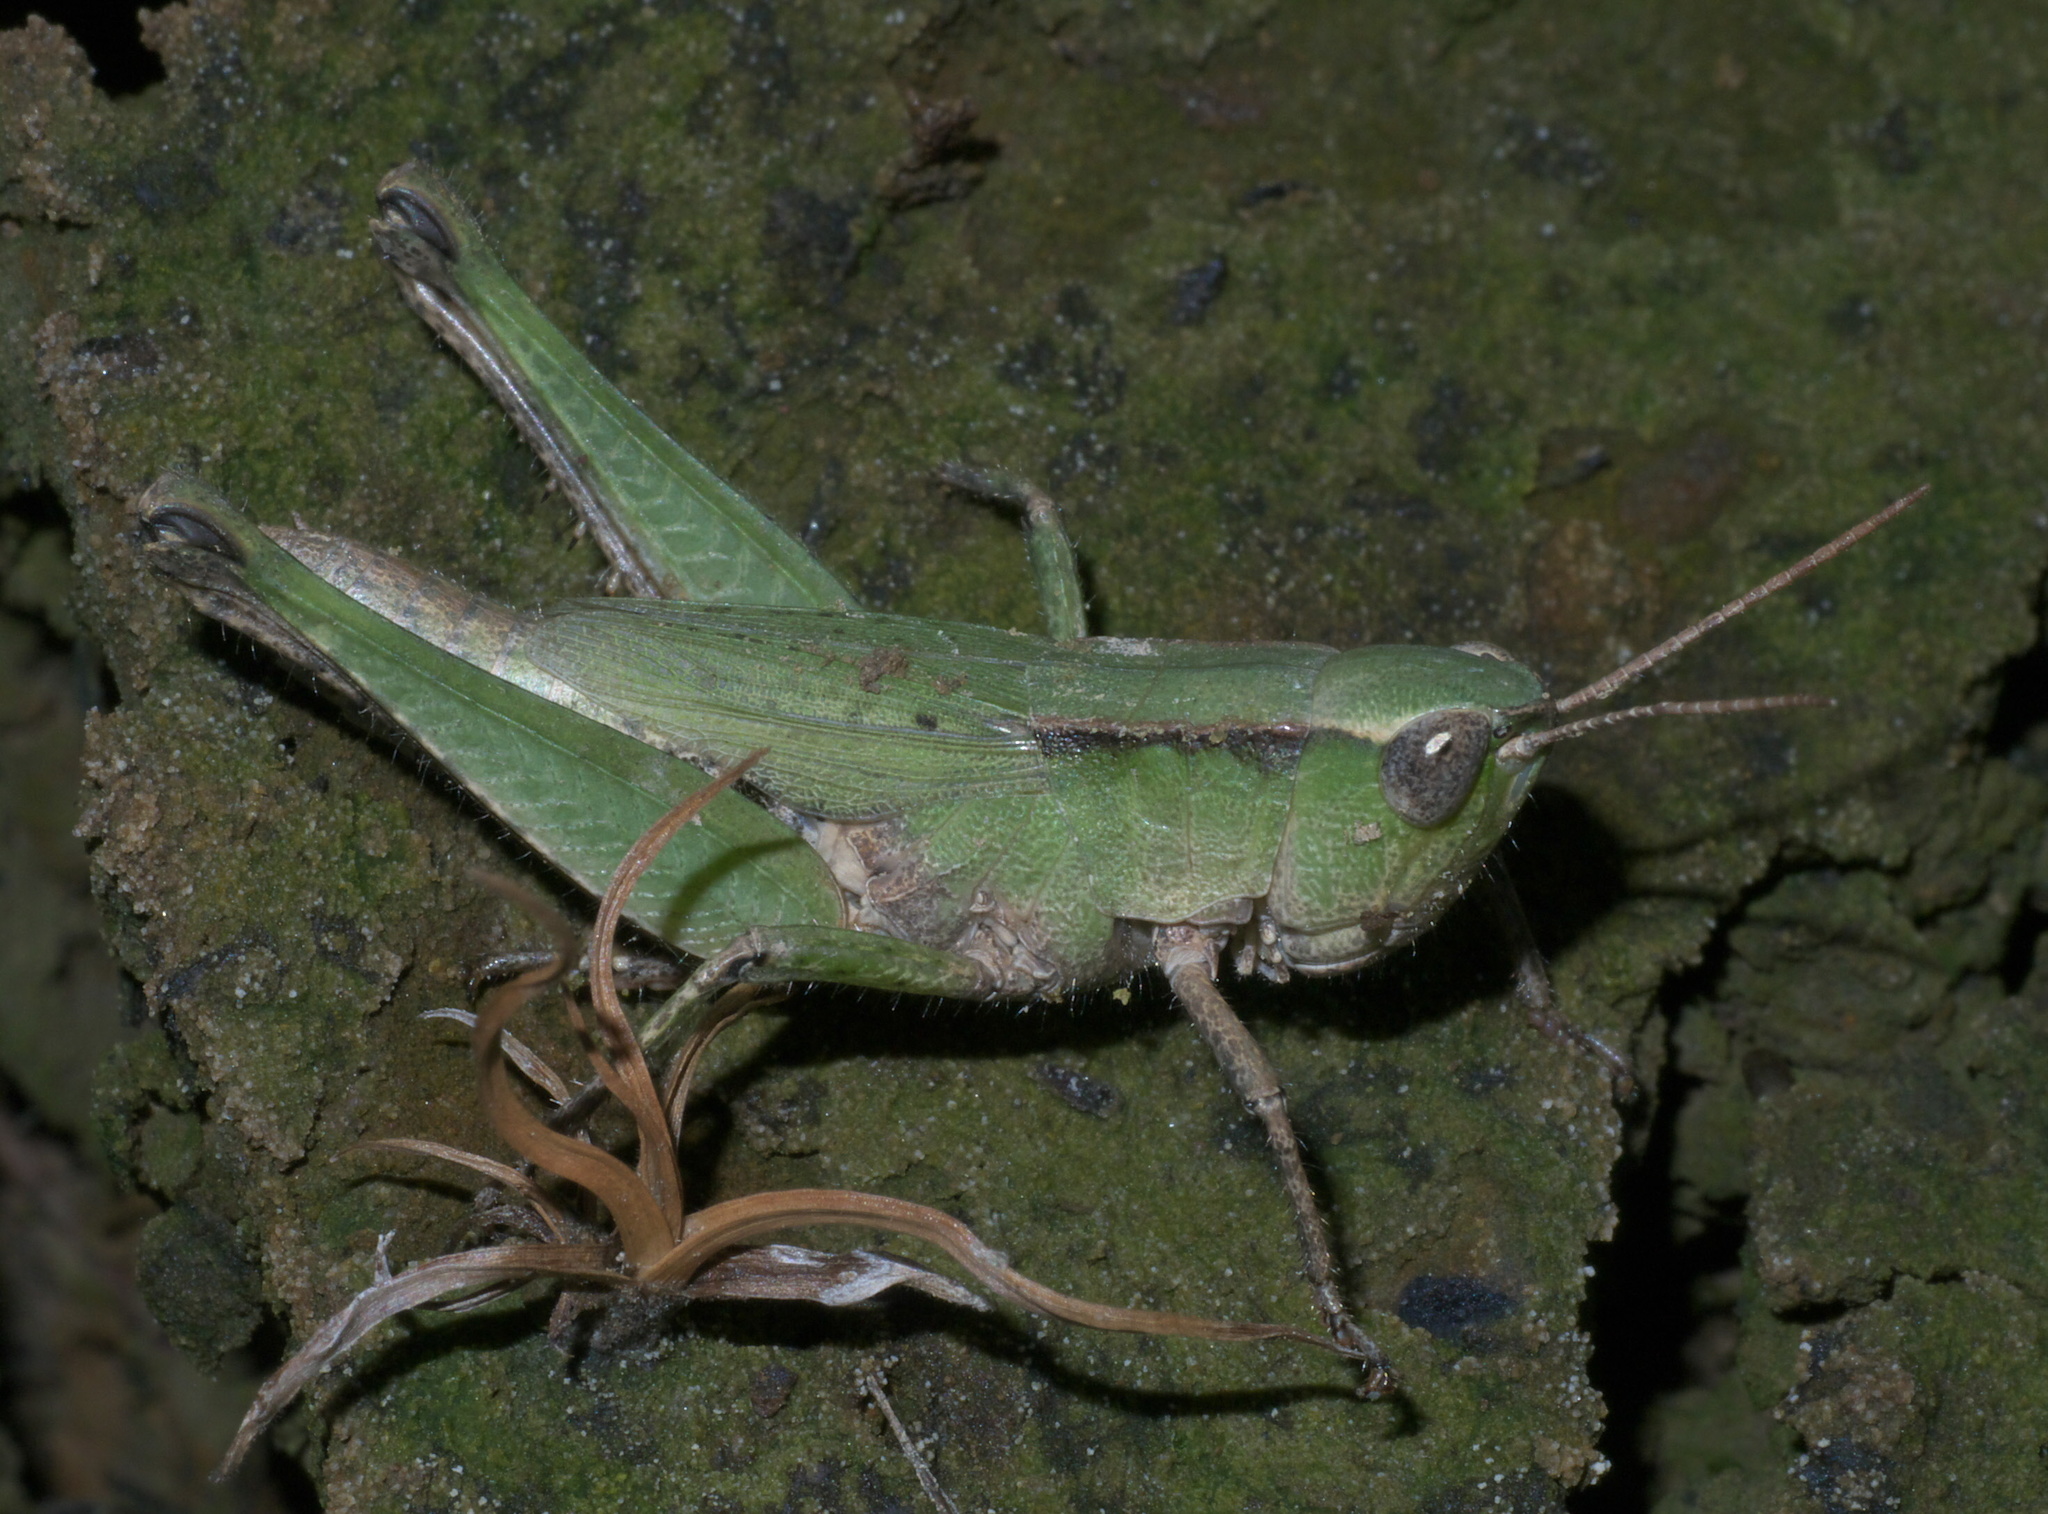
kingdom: Animalia
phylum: Arthropoda
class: Insecta
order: Orthoptera
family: Acrididae
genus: Dichromorpha
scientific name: Dichromorpha viridis
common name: Short-winged green grasshopper
